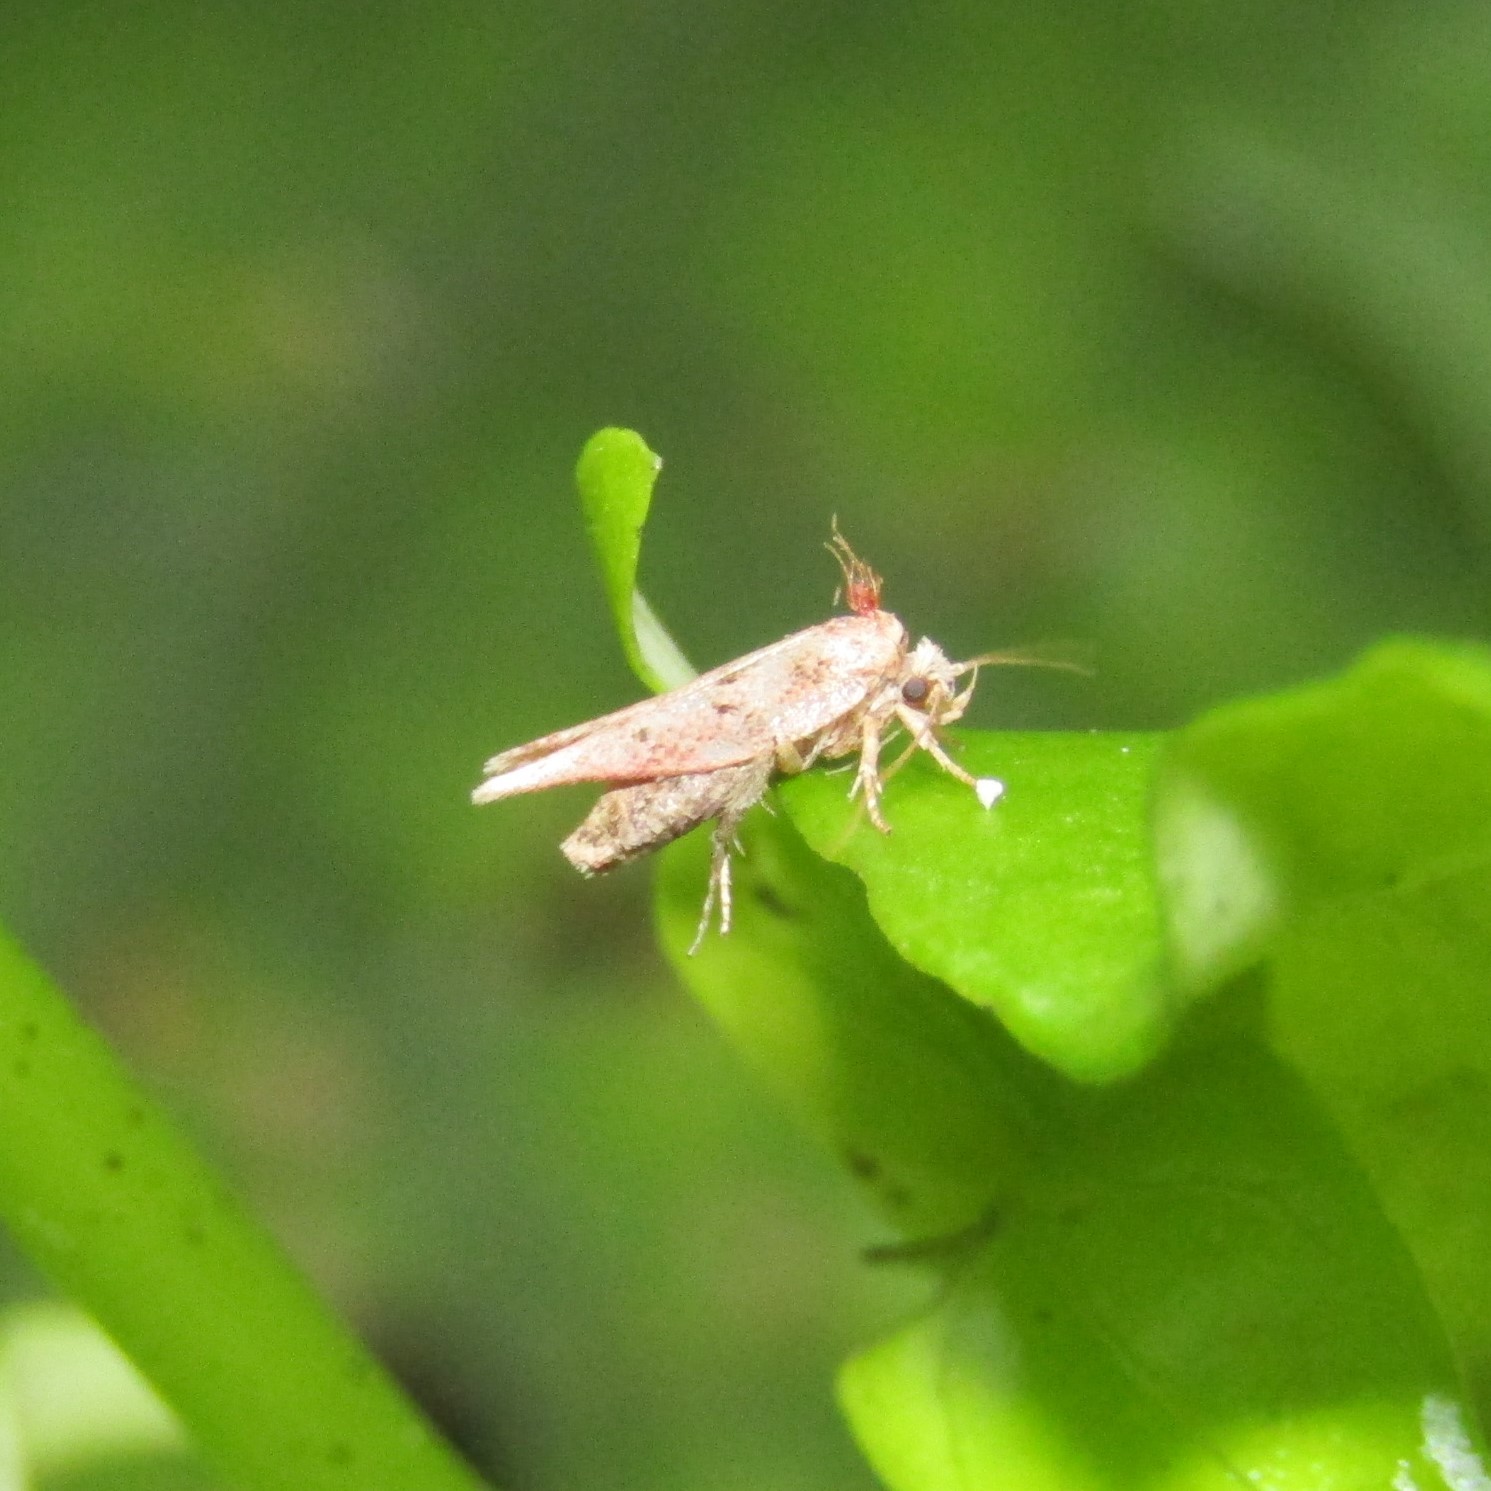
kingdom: Animalia
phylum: Arthropoda
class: Insecta
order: Lepidoptera
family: Oecophoridae
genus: Chersadaula
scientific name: Chersadaula ochrogastra
